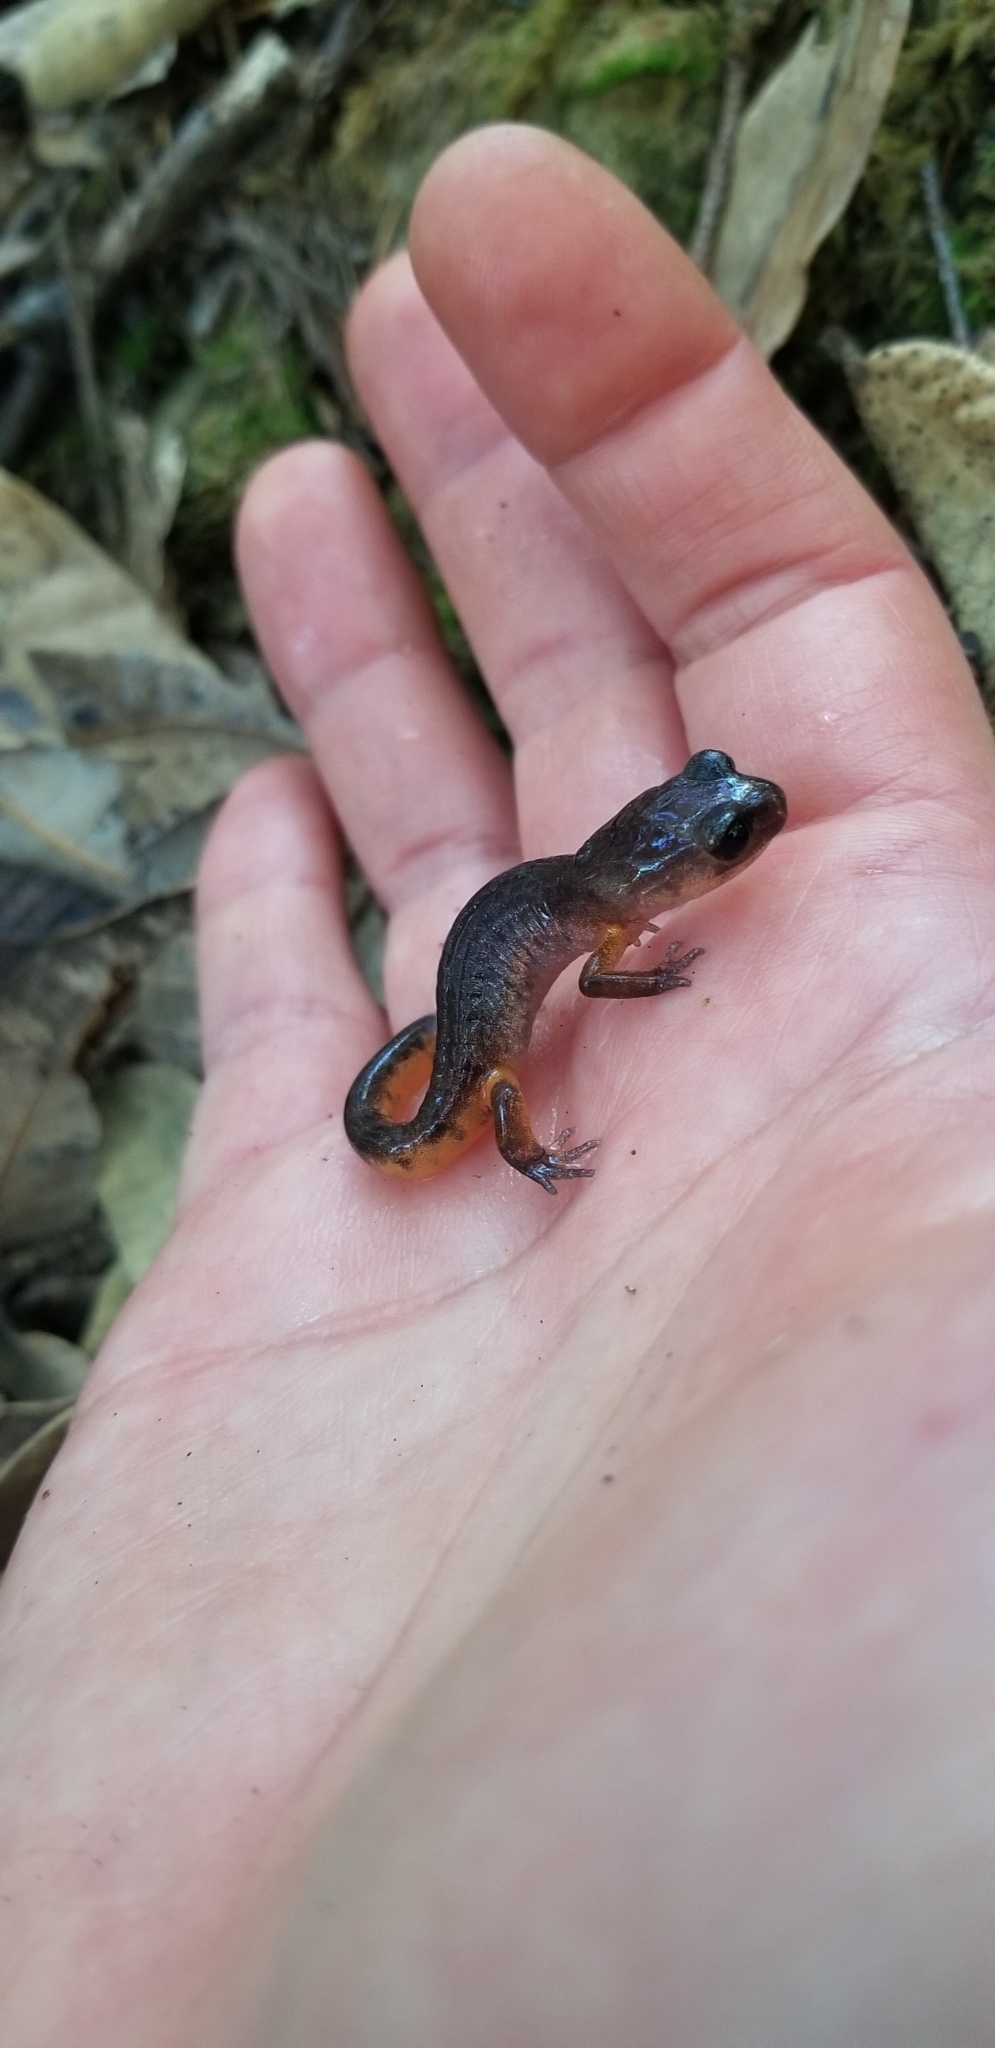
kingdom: Animalia
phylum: Chordata
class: Amphibia
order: Caudata
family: Plethodontidae
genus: Ensatina
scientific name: Ensatina eschscholtzii
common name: Ensatina
